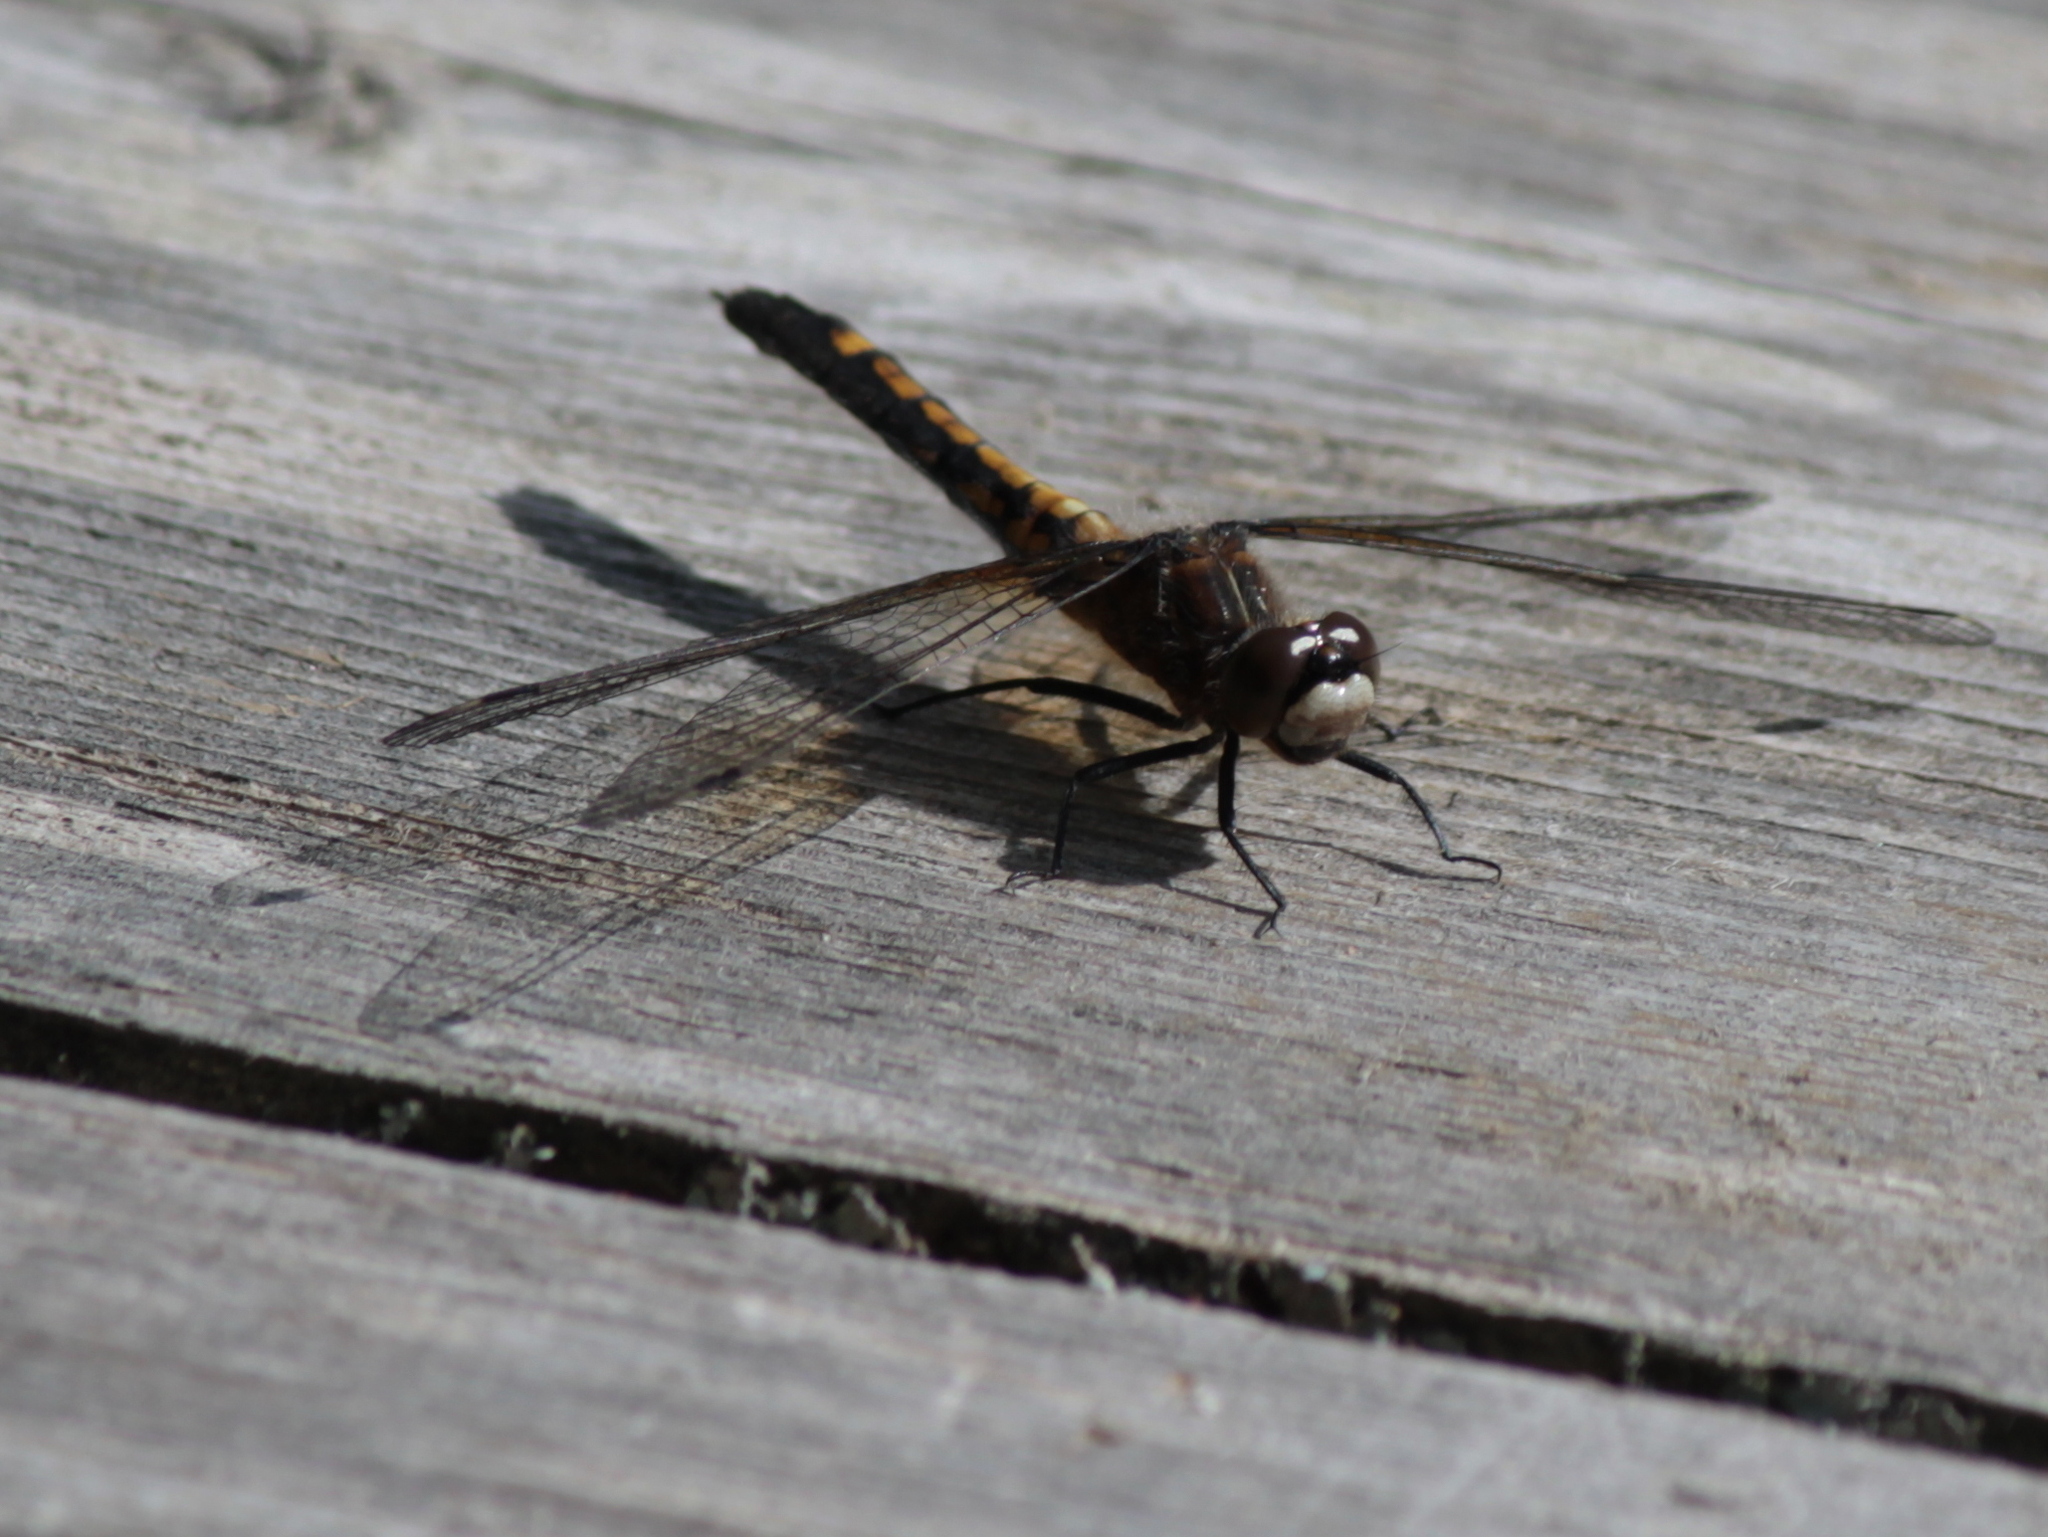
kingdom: Animalia
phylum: Arthropoda
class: Insecta
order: Odonata
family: Libellulidae
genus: Leucorrhinia
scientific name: Leucorrhinia intacta
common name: Dot-tailed whiteface
